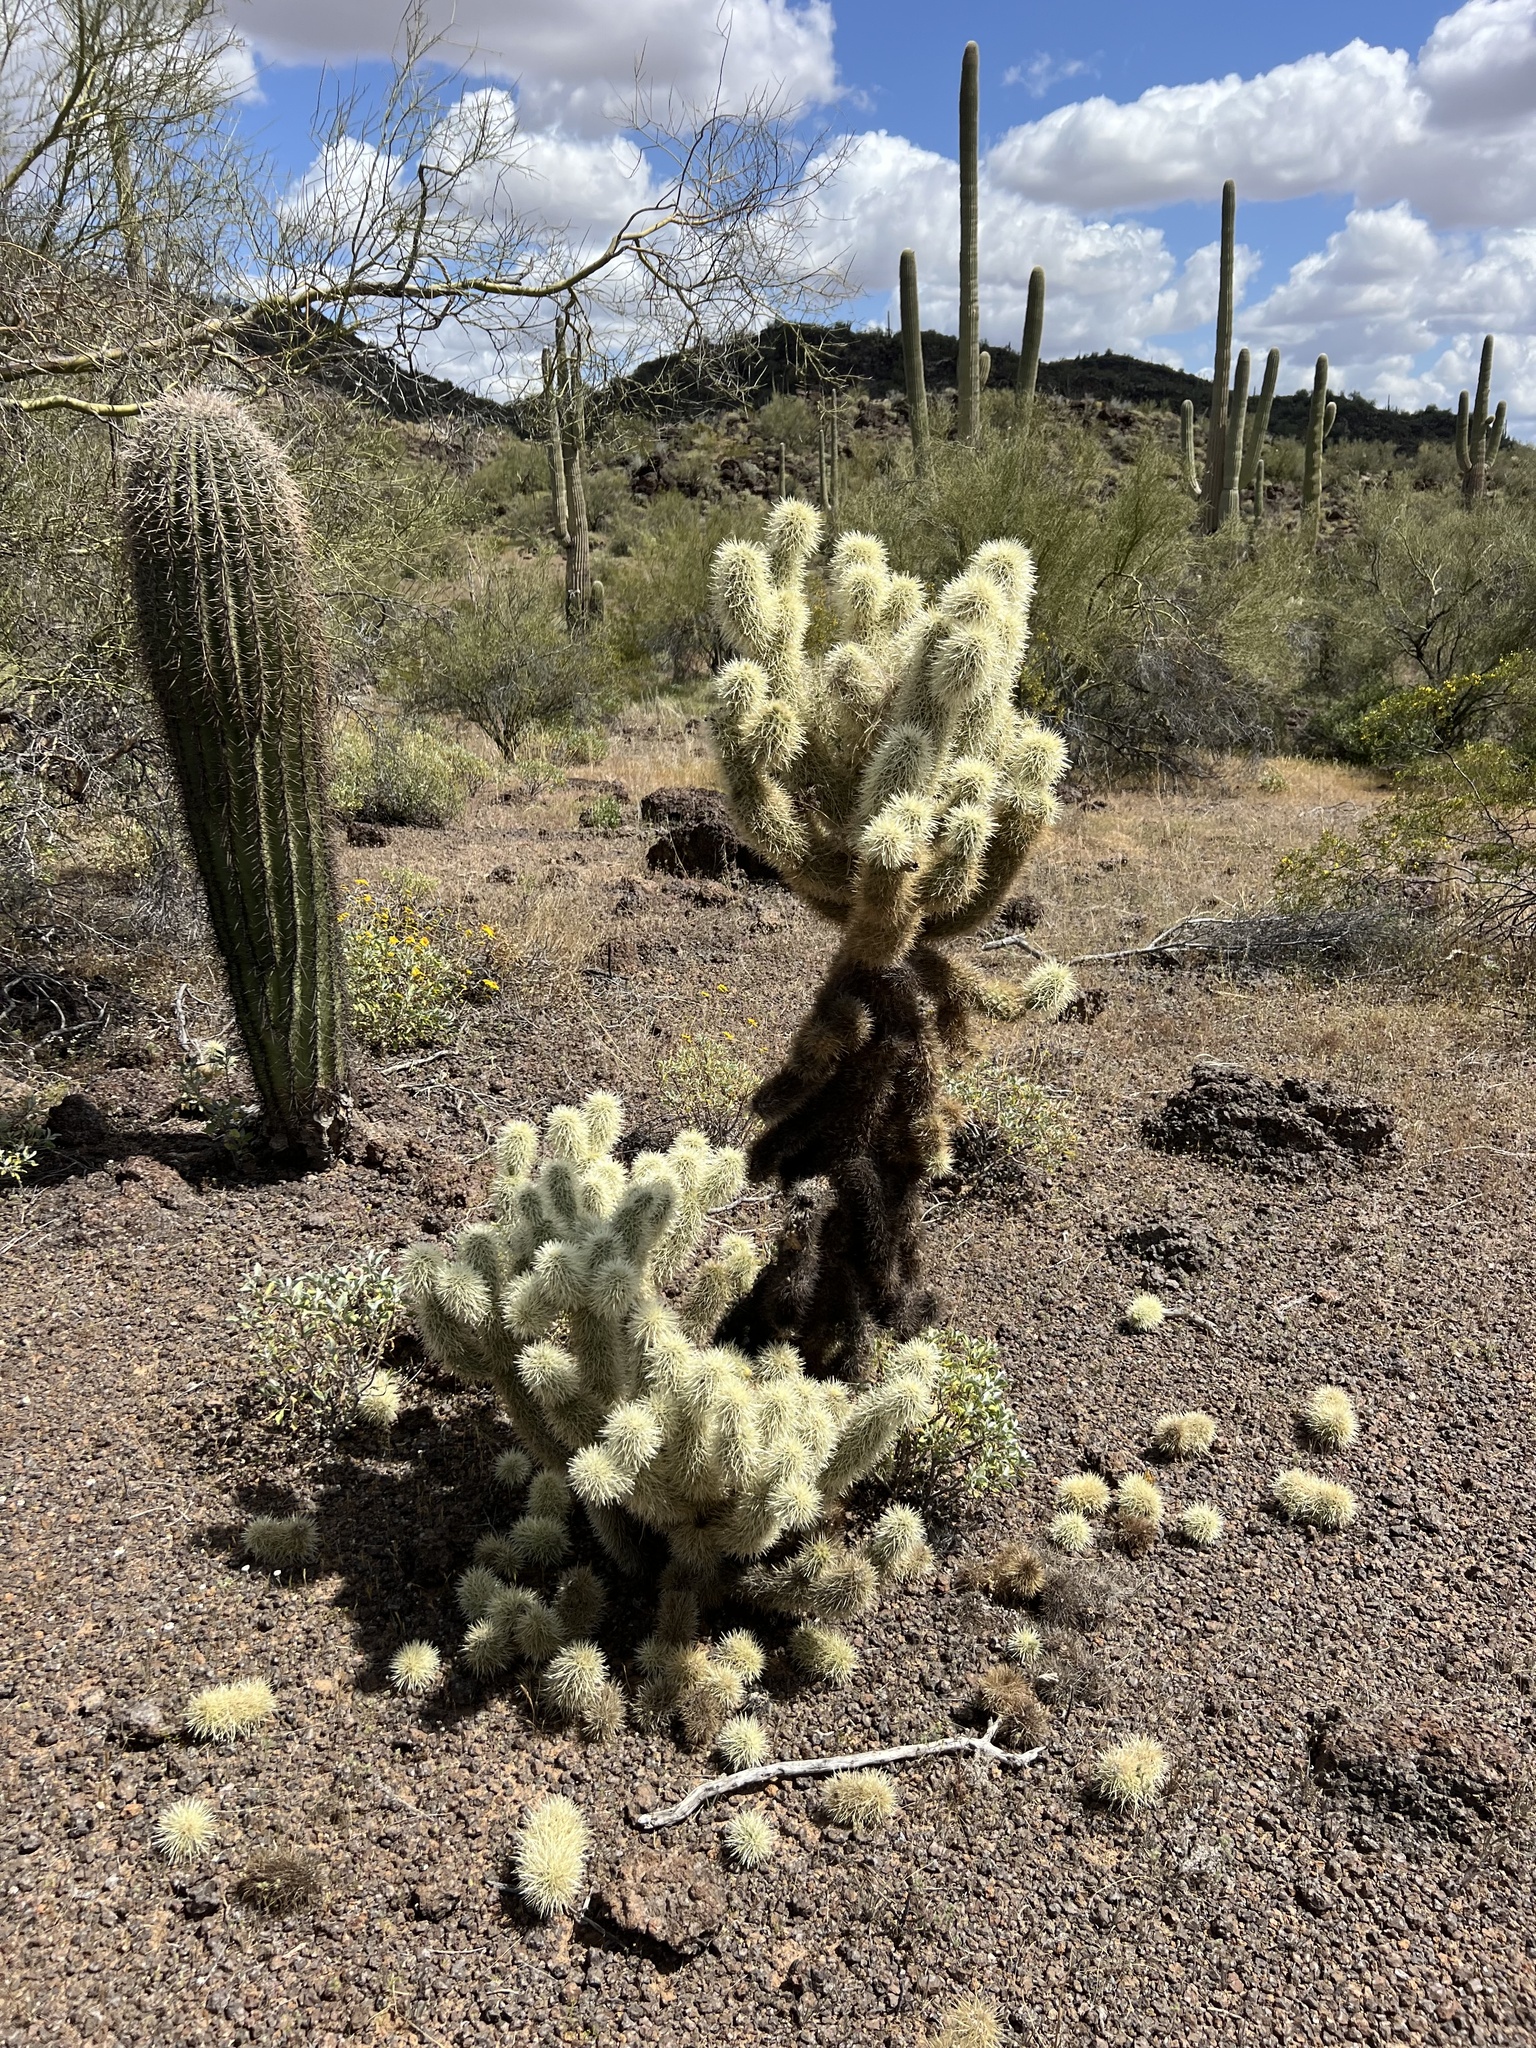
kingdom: Plantae
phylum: Tracheophyta
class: Magnoliopsida
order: Caryophyllales
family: Cactaceae
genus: Cylindropuntia
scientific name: Cylindropuntia fosbergii
